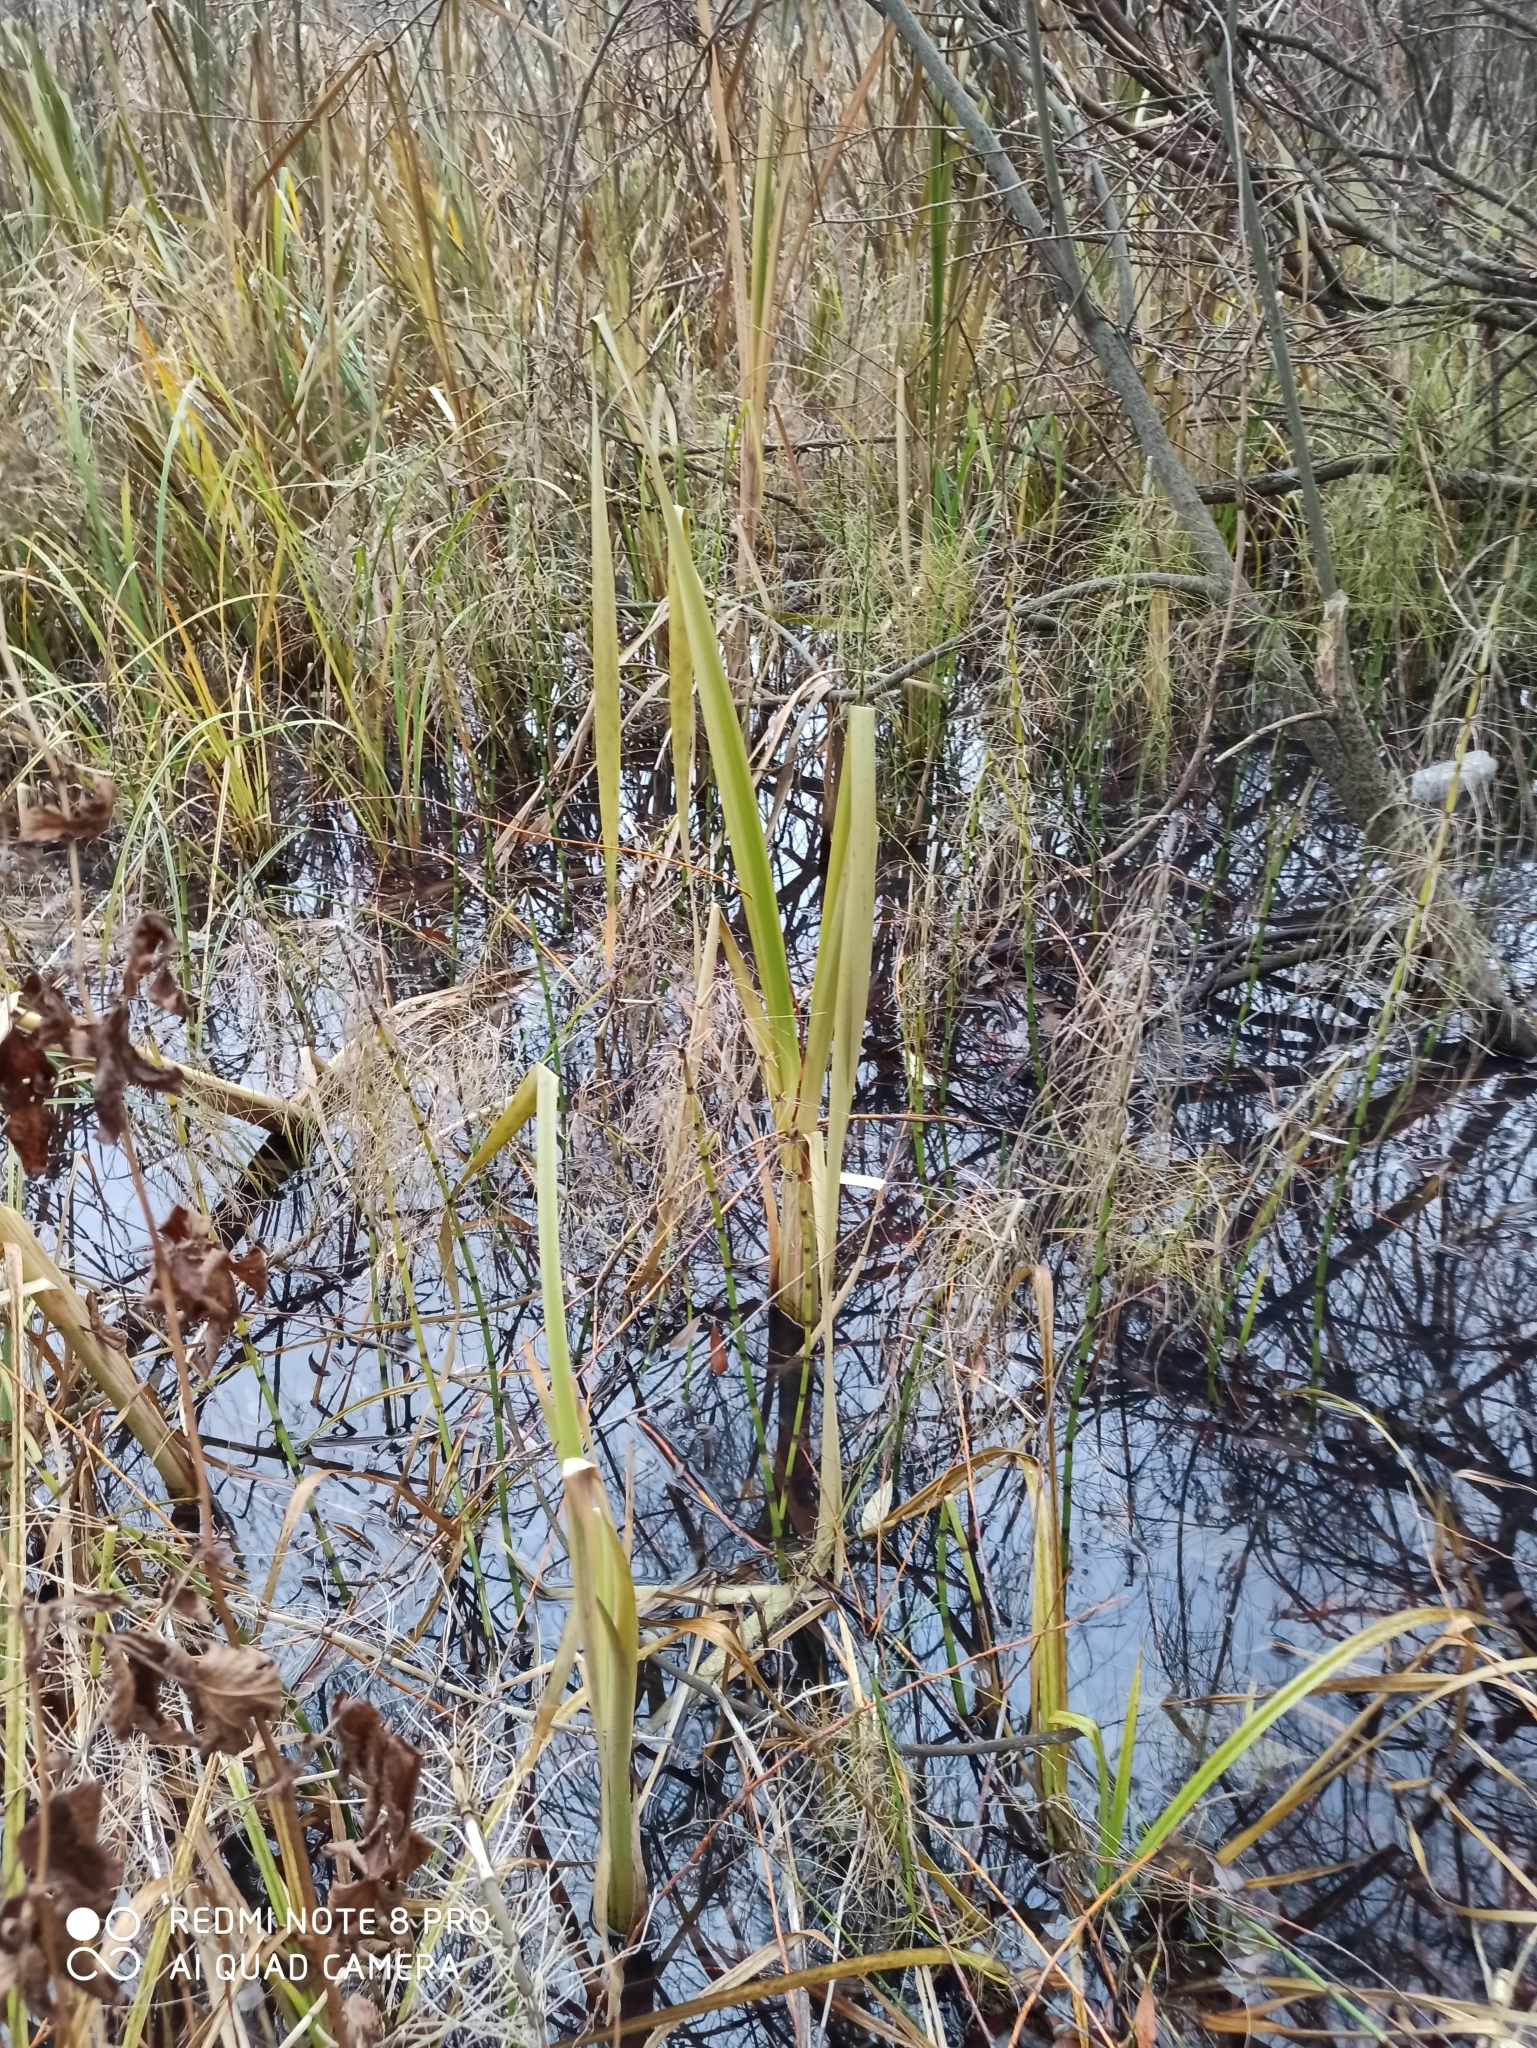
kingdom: Plantae
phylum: Tracheophyta
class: Liliopsida
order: Poales
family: Typhaceae
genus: Typha
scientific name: Typha latifolia
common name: Broadleaf cattail
